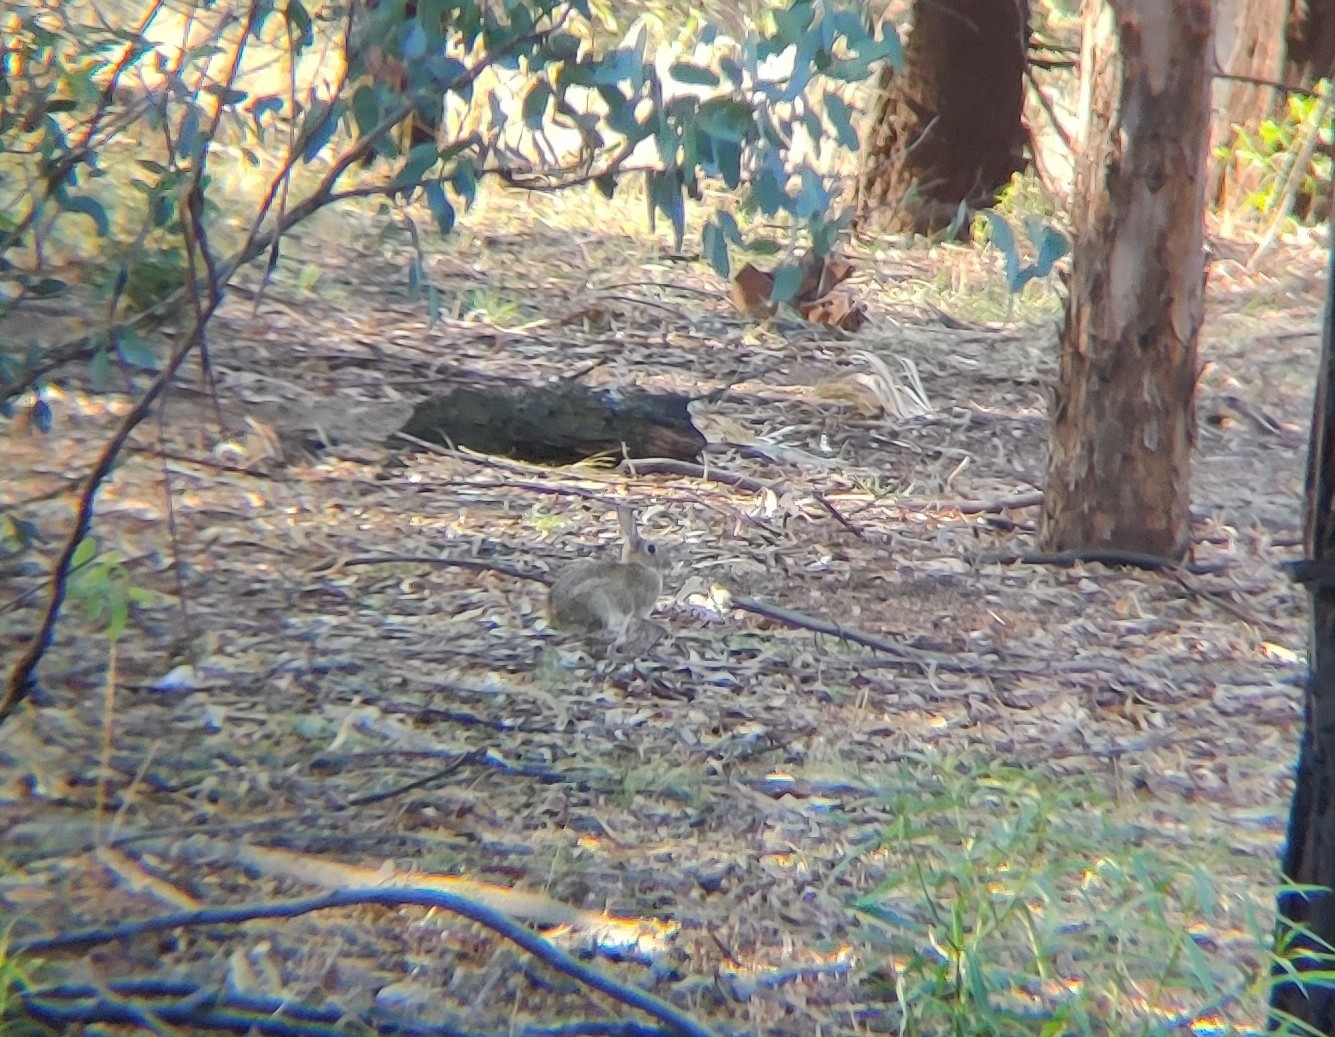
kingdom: Animalia
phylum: Chordata
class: Mammalia
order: Lagomorpha
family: Leporidae
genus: Oryctolagus
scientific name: Oryctolagus cuniculus
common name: European rabbit
